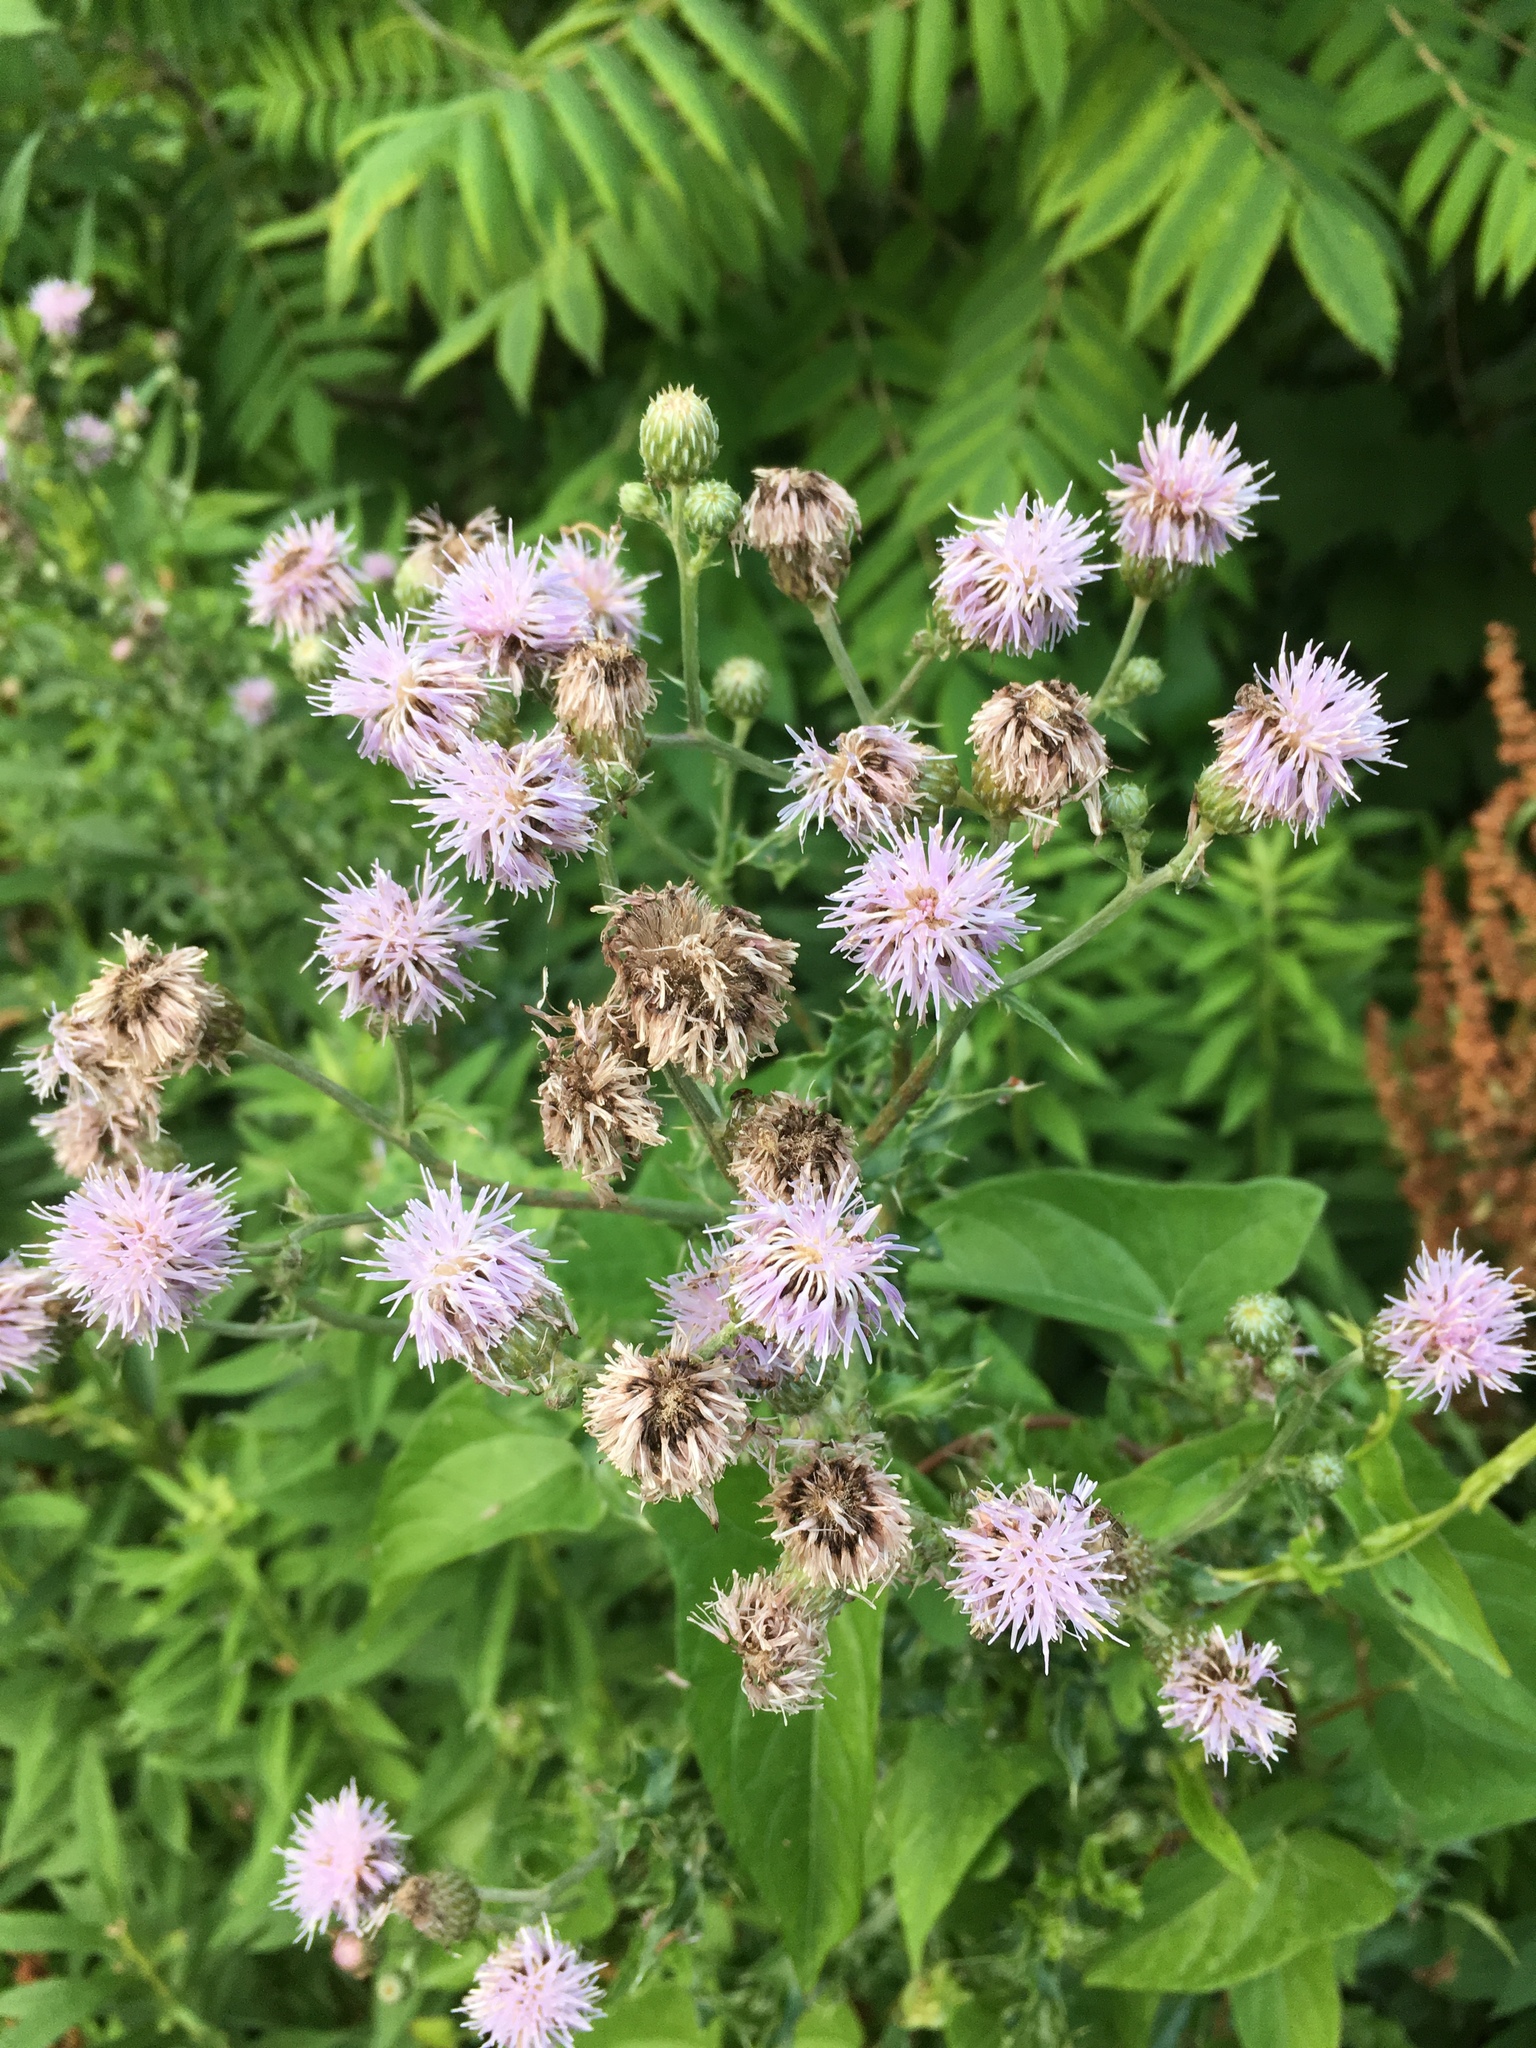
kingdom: Plantae
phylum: Tracheophyta
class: Magnoliopsida
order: Asterales
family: Asteraceae
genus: Cirsium
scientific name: Cirsium arvense
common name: Creeping thistle
